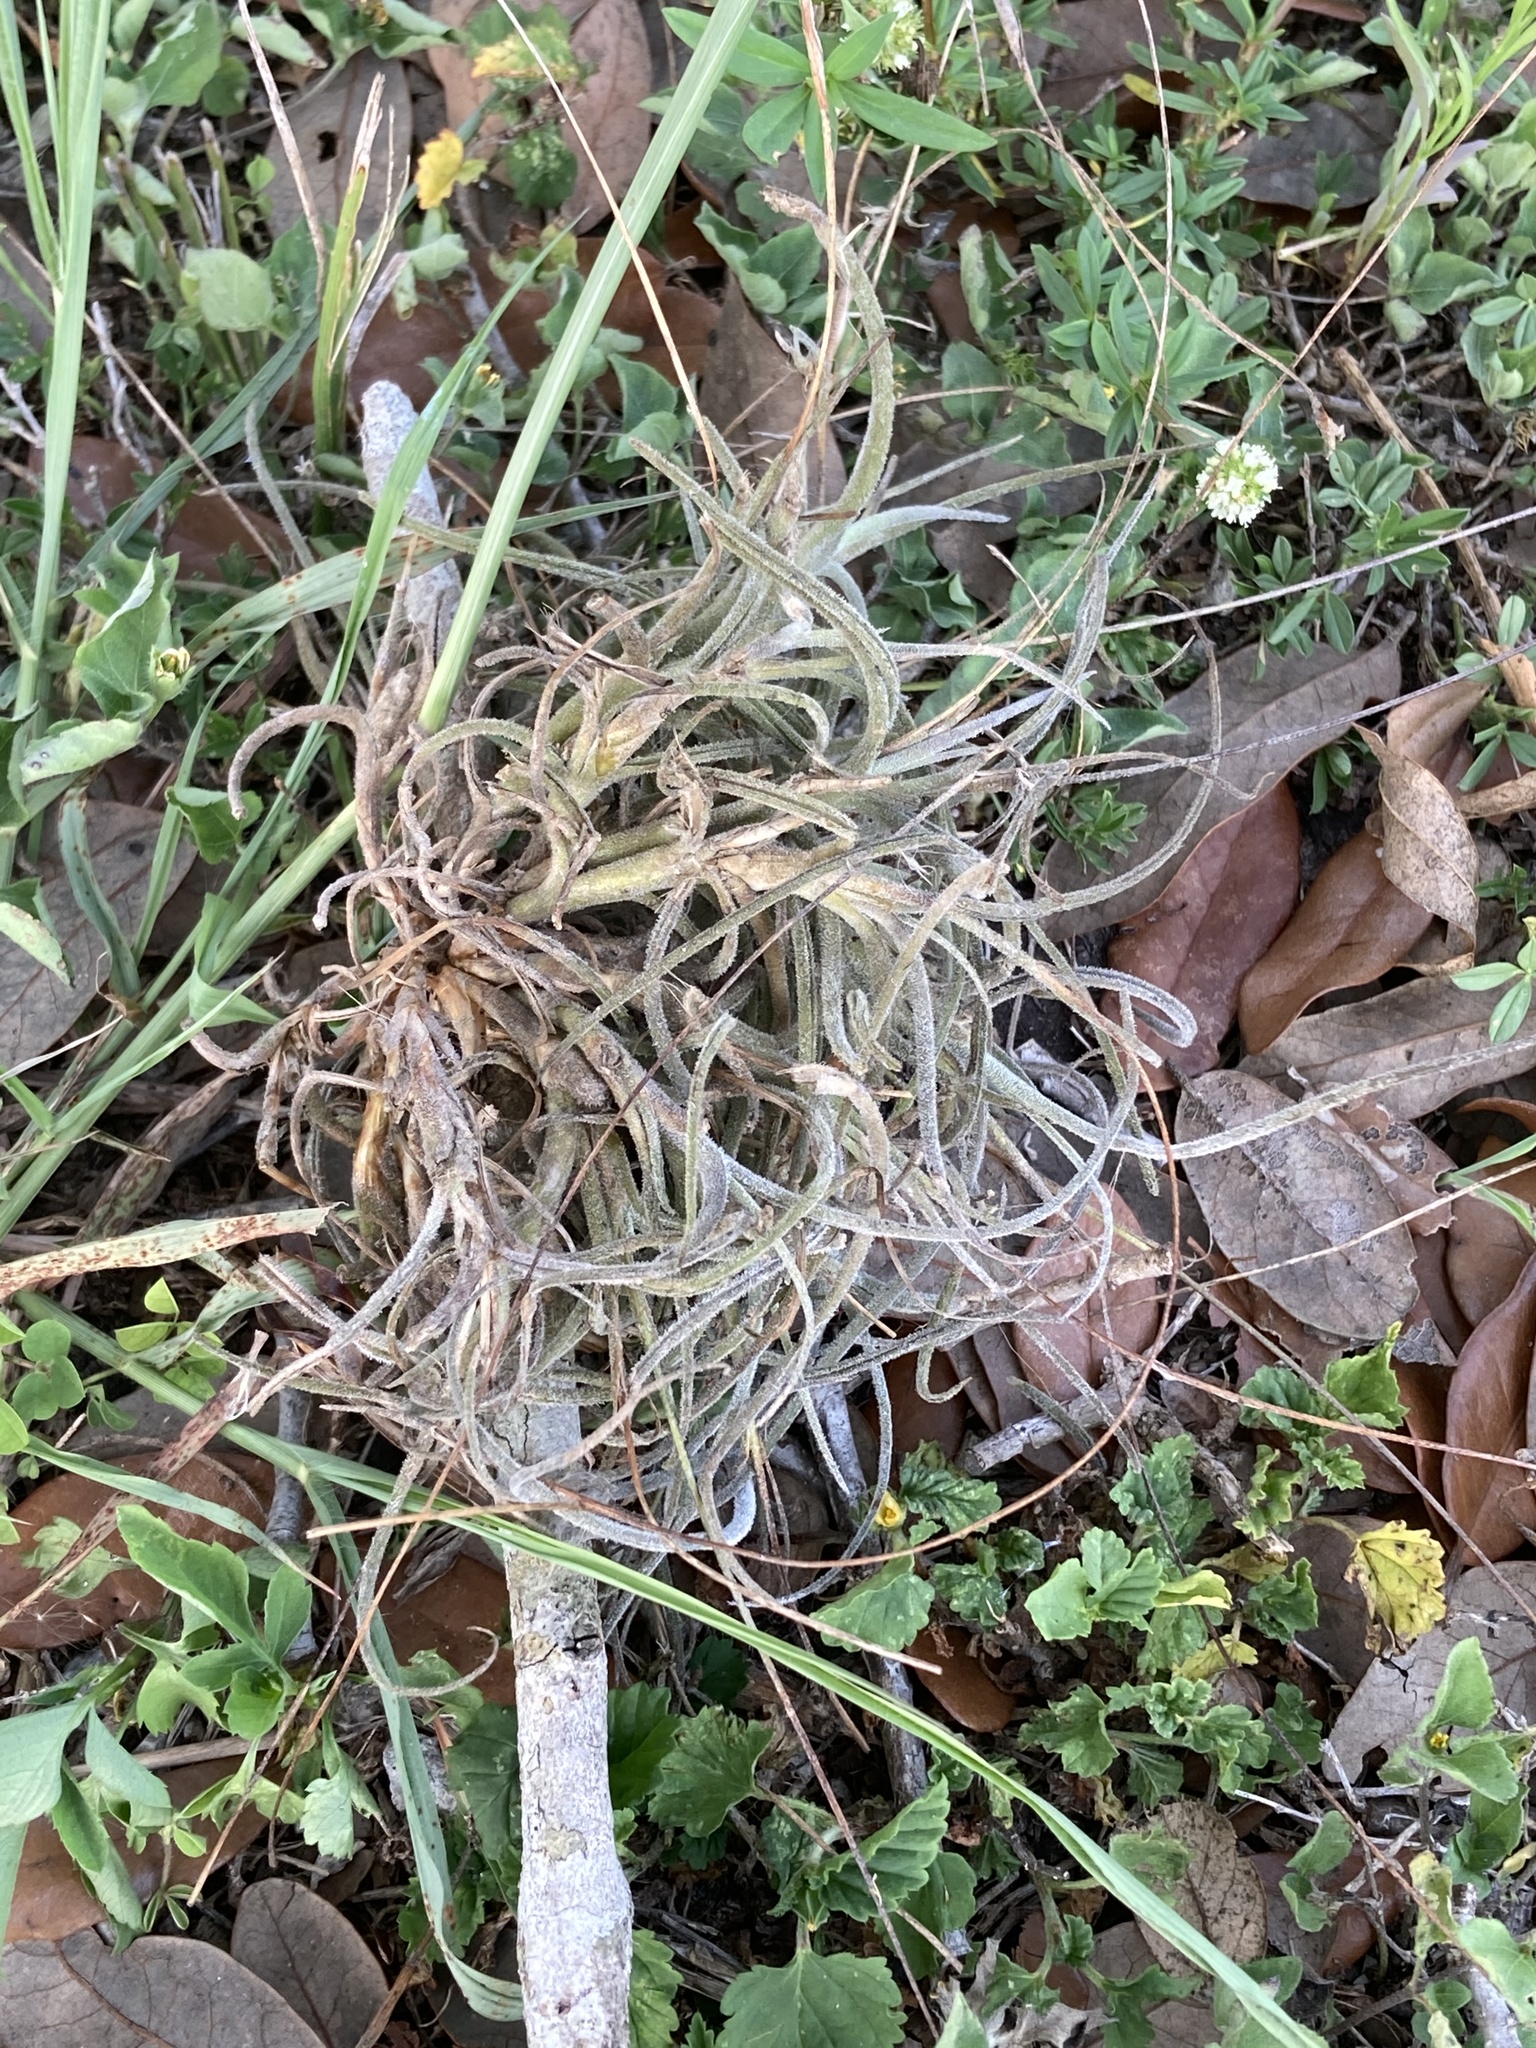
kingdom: Plantae
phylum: Tracheophyta
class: Liliopsida
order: Poales
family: Bromeliaceae
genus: Tillandsia
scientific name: Tillandsia recurvata
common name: Small ballmoss
